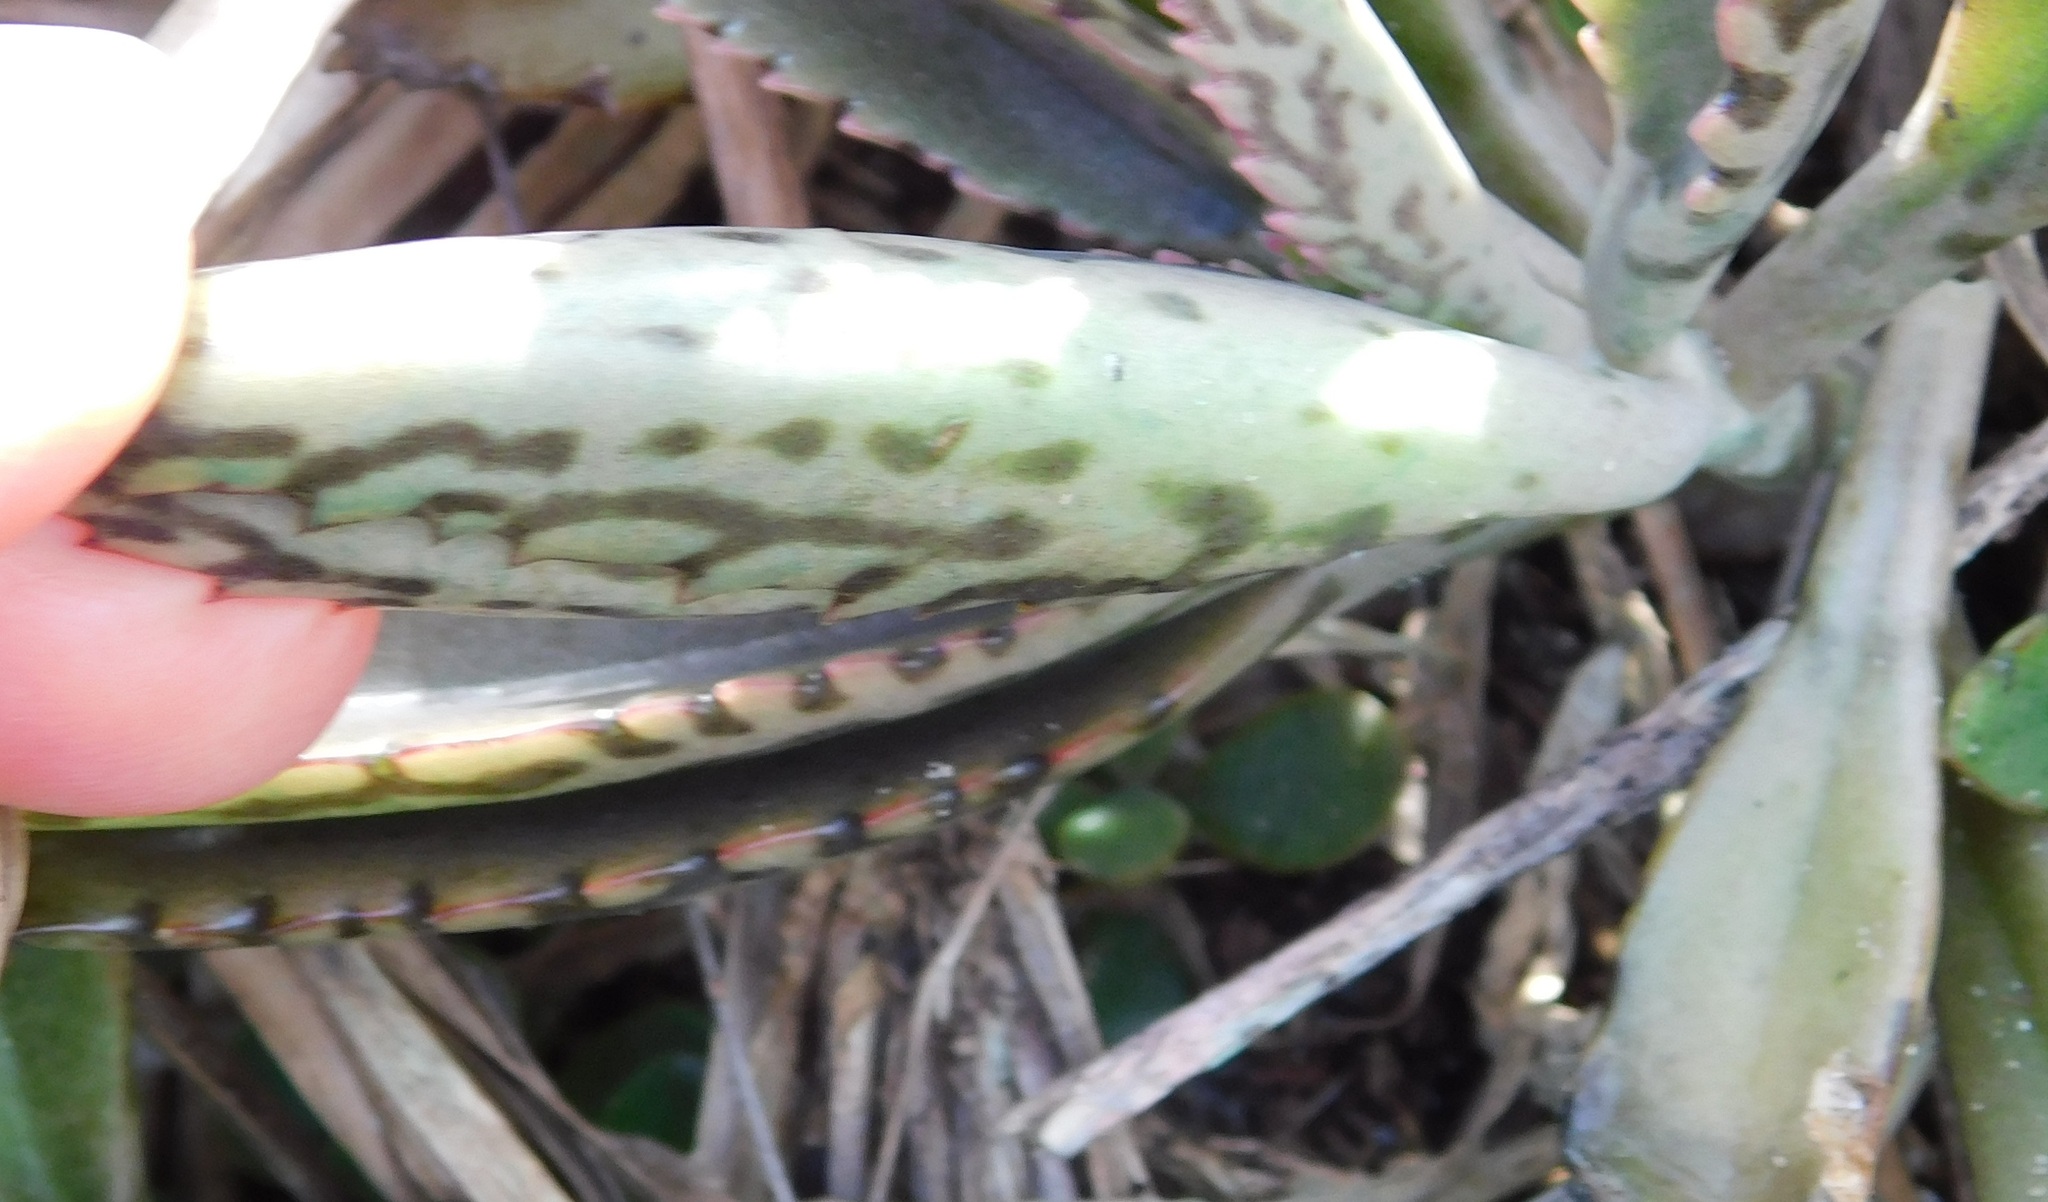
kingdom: Plantae
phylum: Tracheophyta
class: Magnoliopsida
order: Saxifragales
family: Crassulaceae
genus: Kalanchoe
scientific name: Kalanchoe houghtonii
